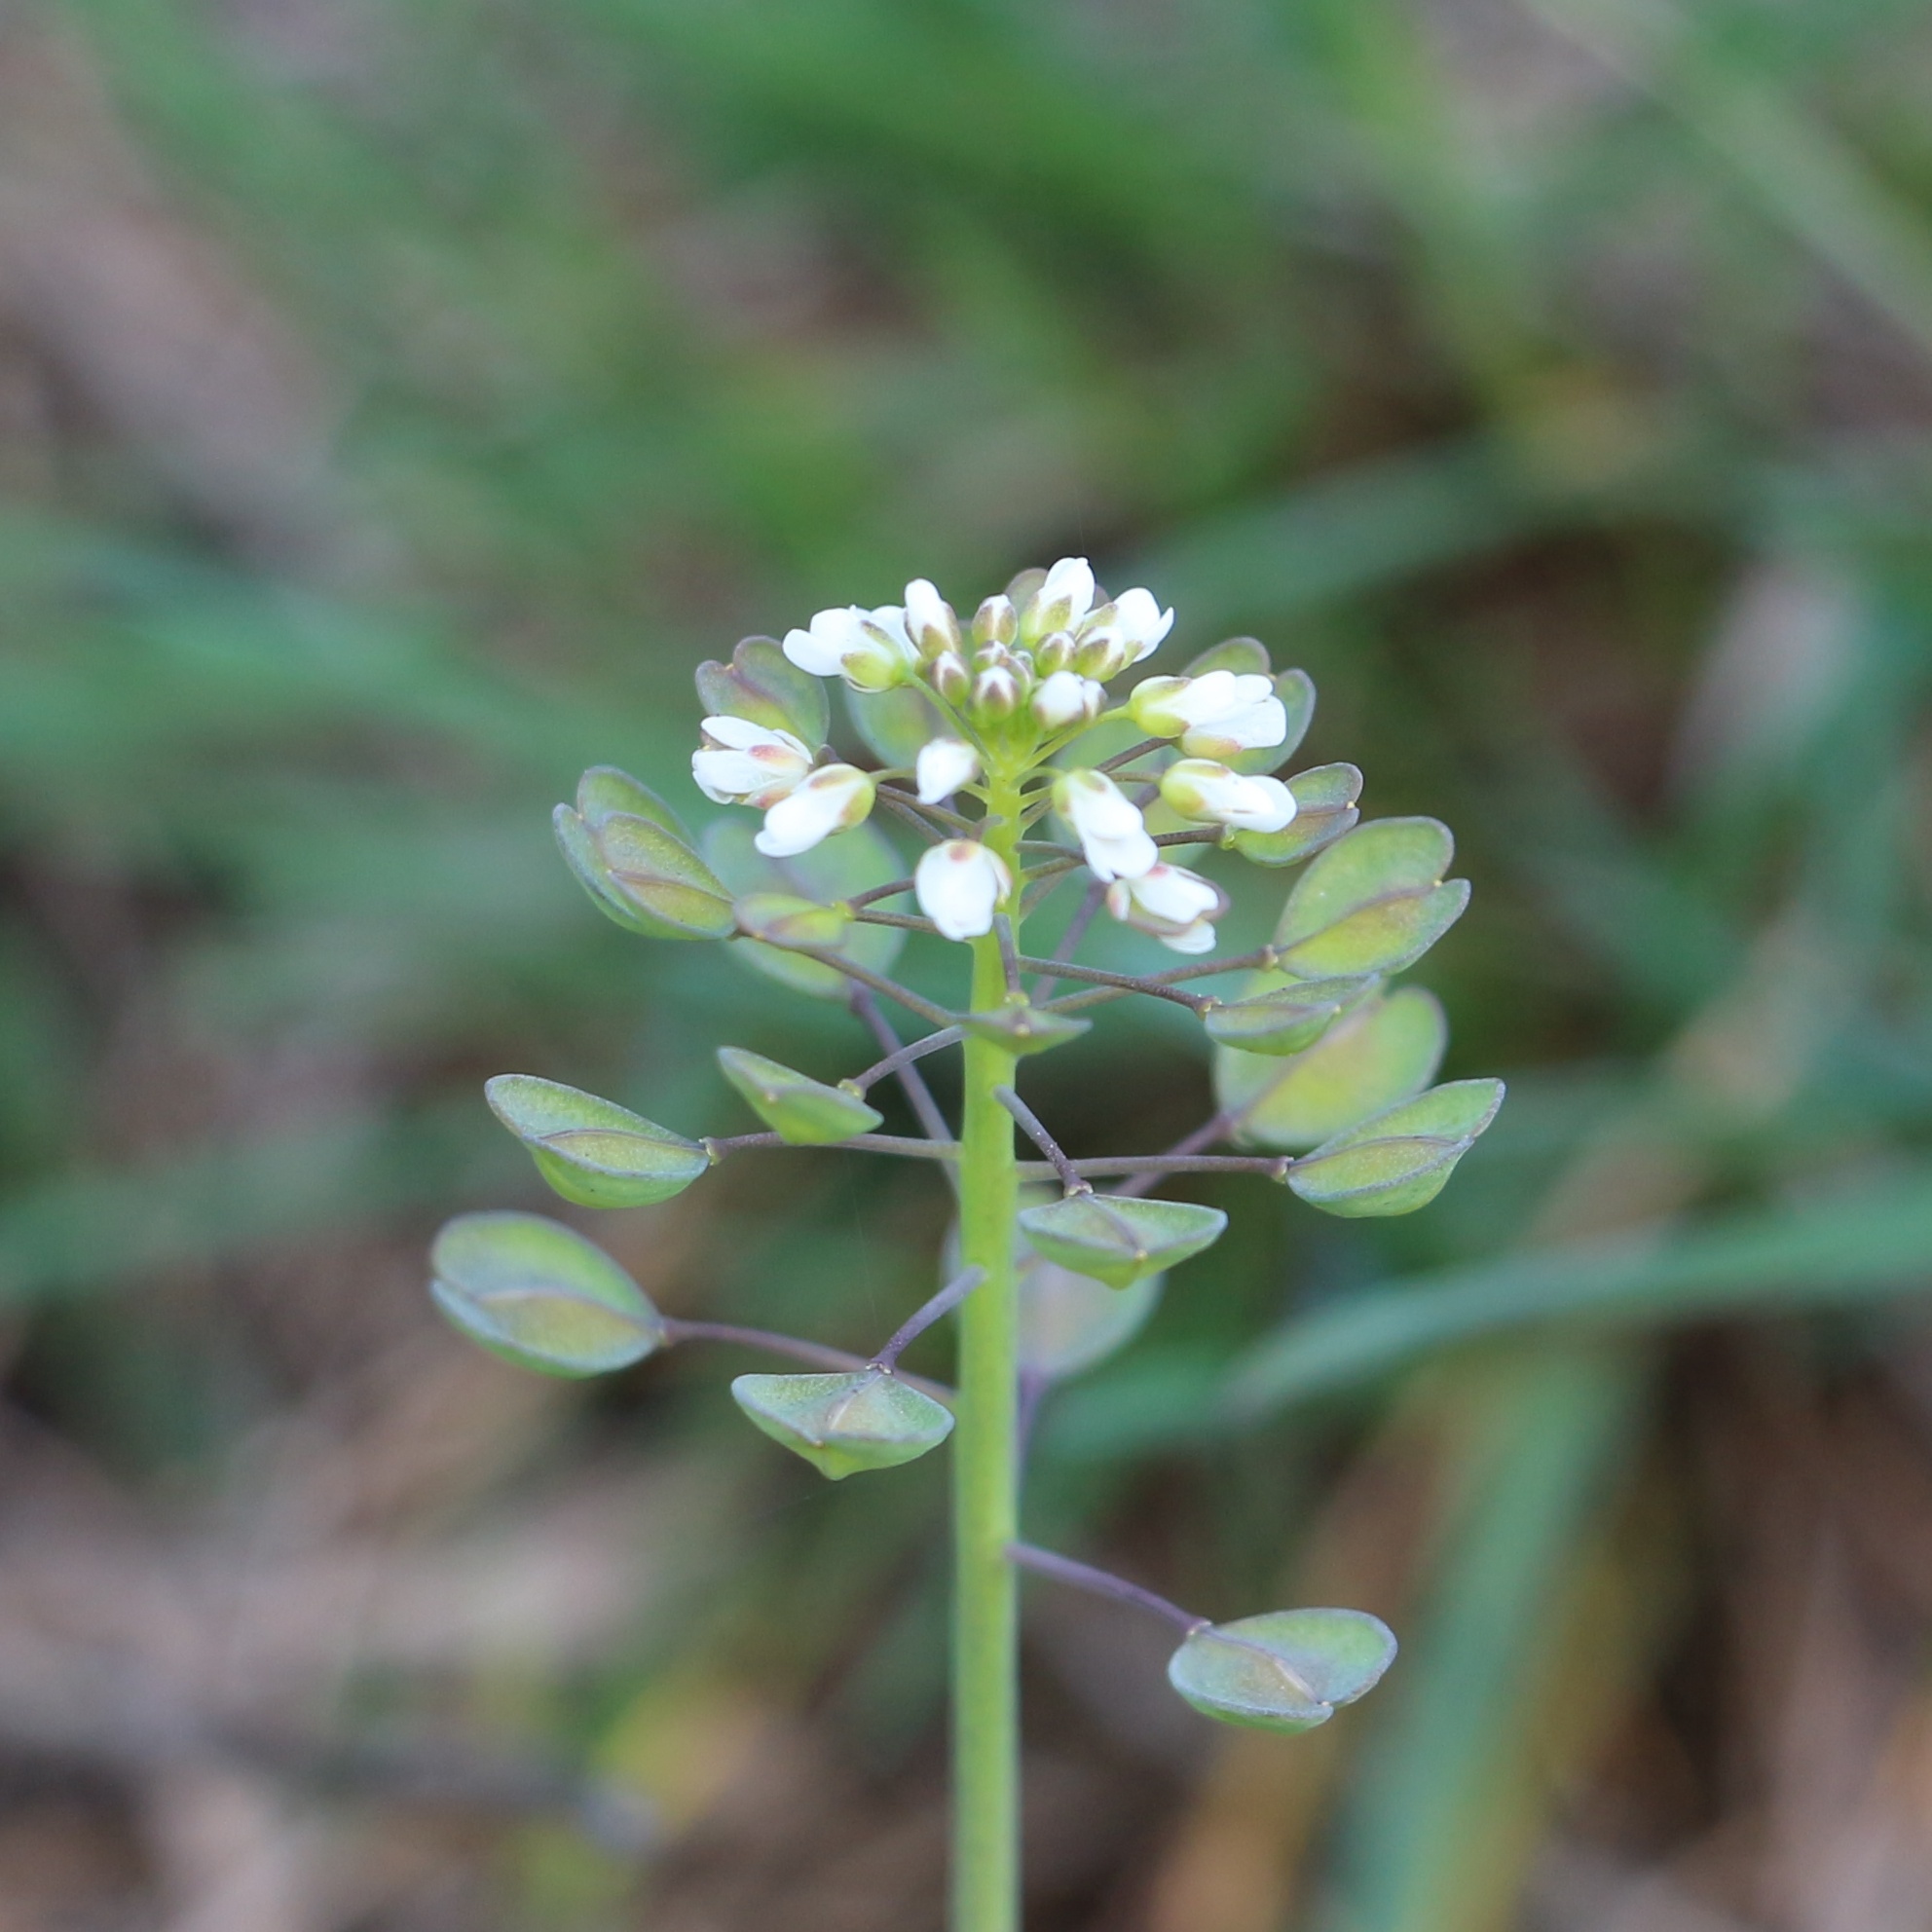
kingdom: Plantae
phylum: Tracheophyta
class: Magnoliopsida
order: Brassicales
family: Brassicaceae
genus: Noccaea
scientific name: Noccaea perfoliata
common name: Perfoliate pennycress
